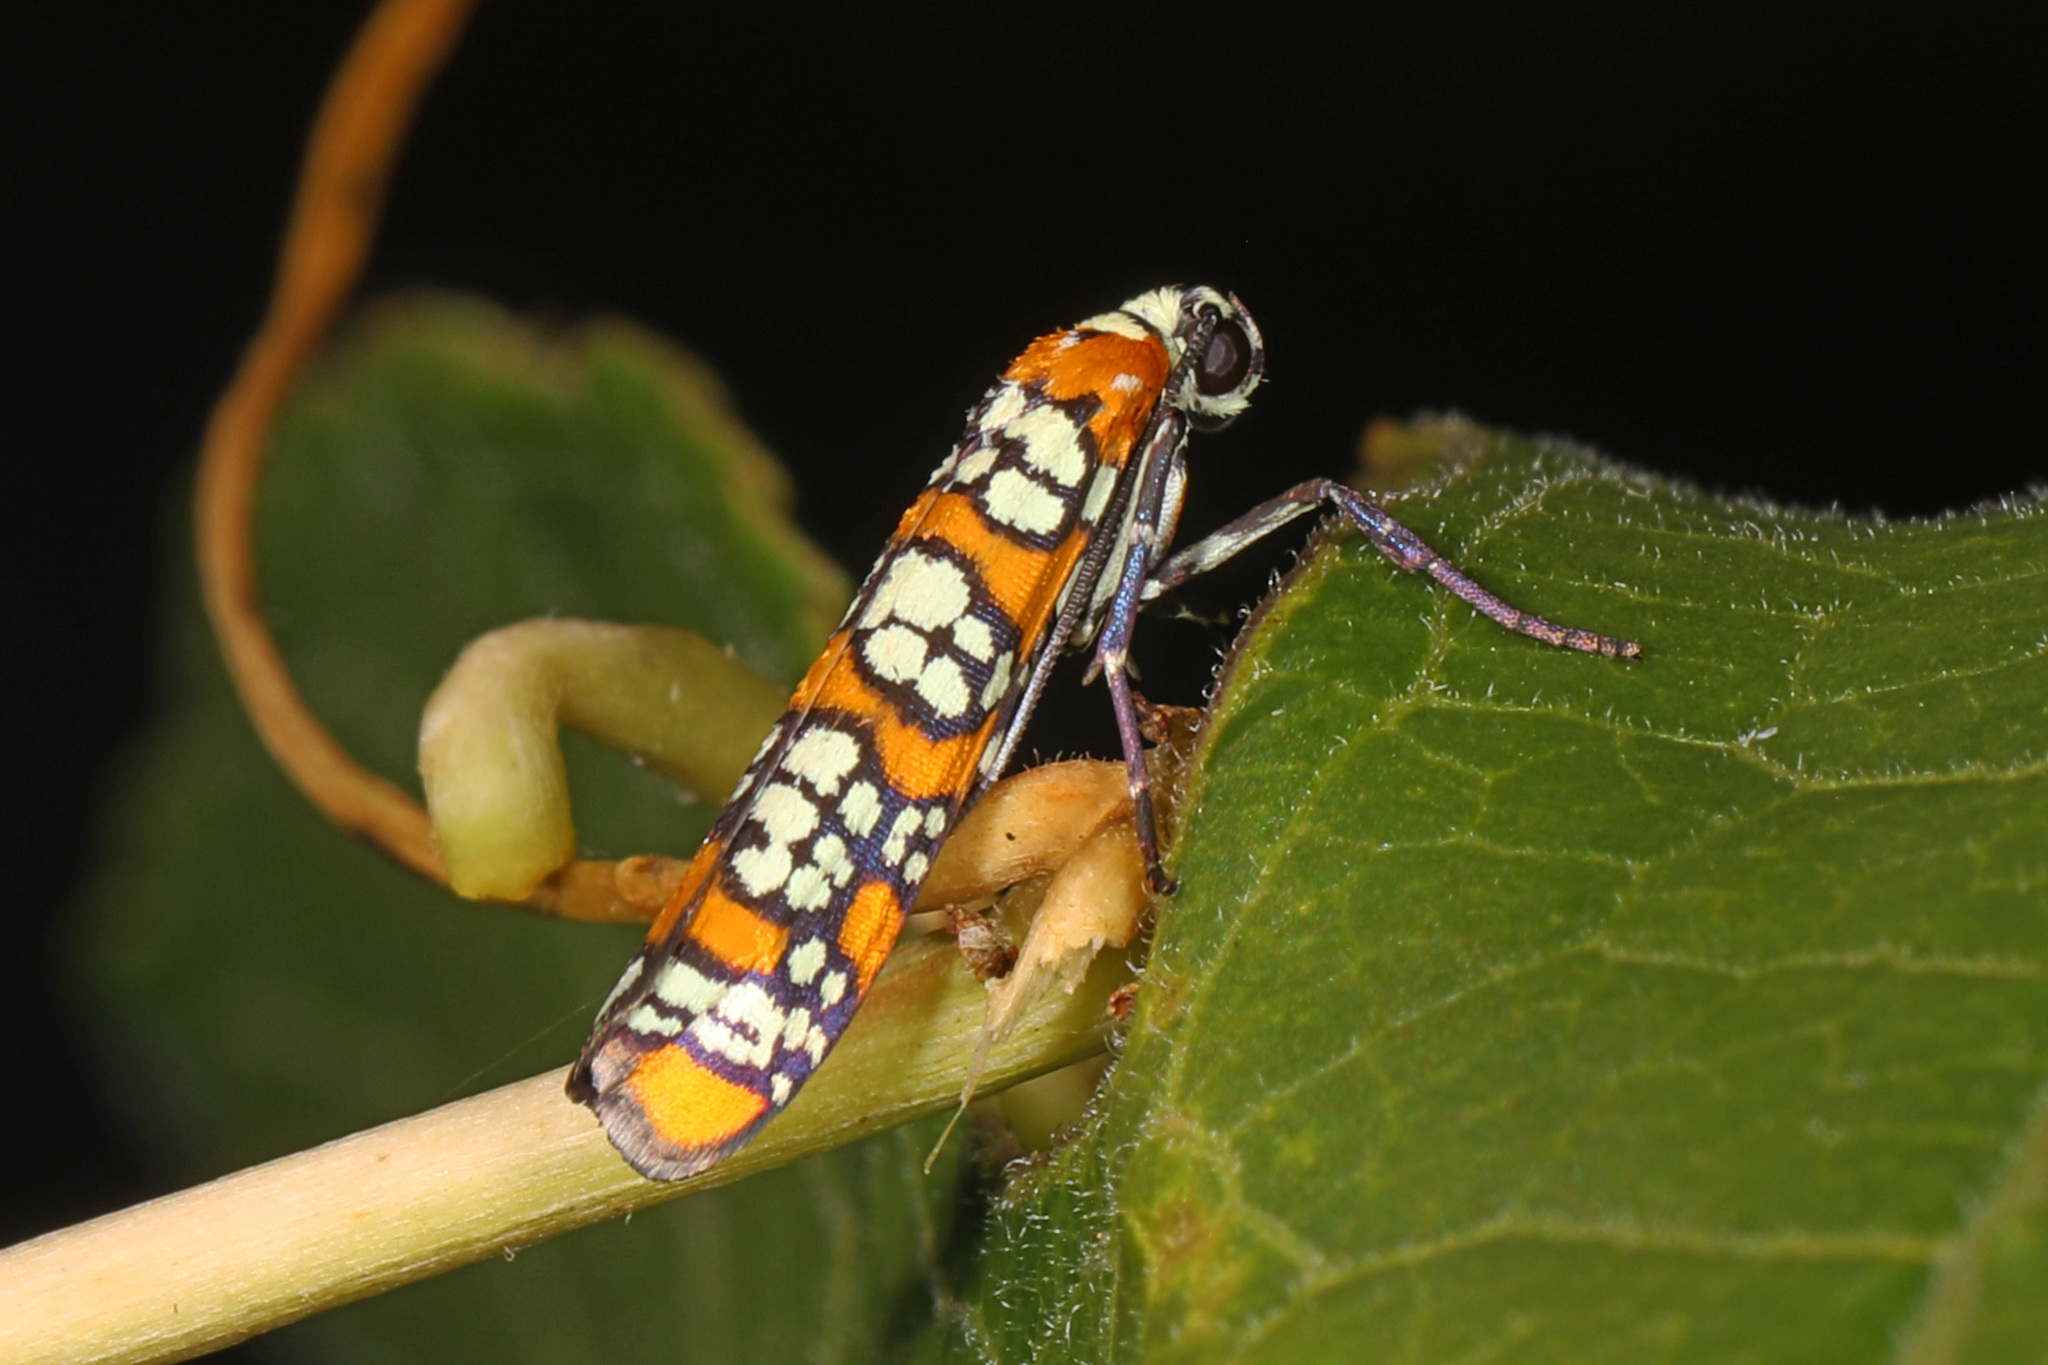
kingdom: Animalia
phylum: Arthropoda
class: Insecta
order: Lepidoptera
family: Attevidae
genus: Atteva
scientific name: Atteva punctella
